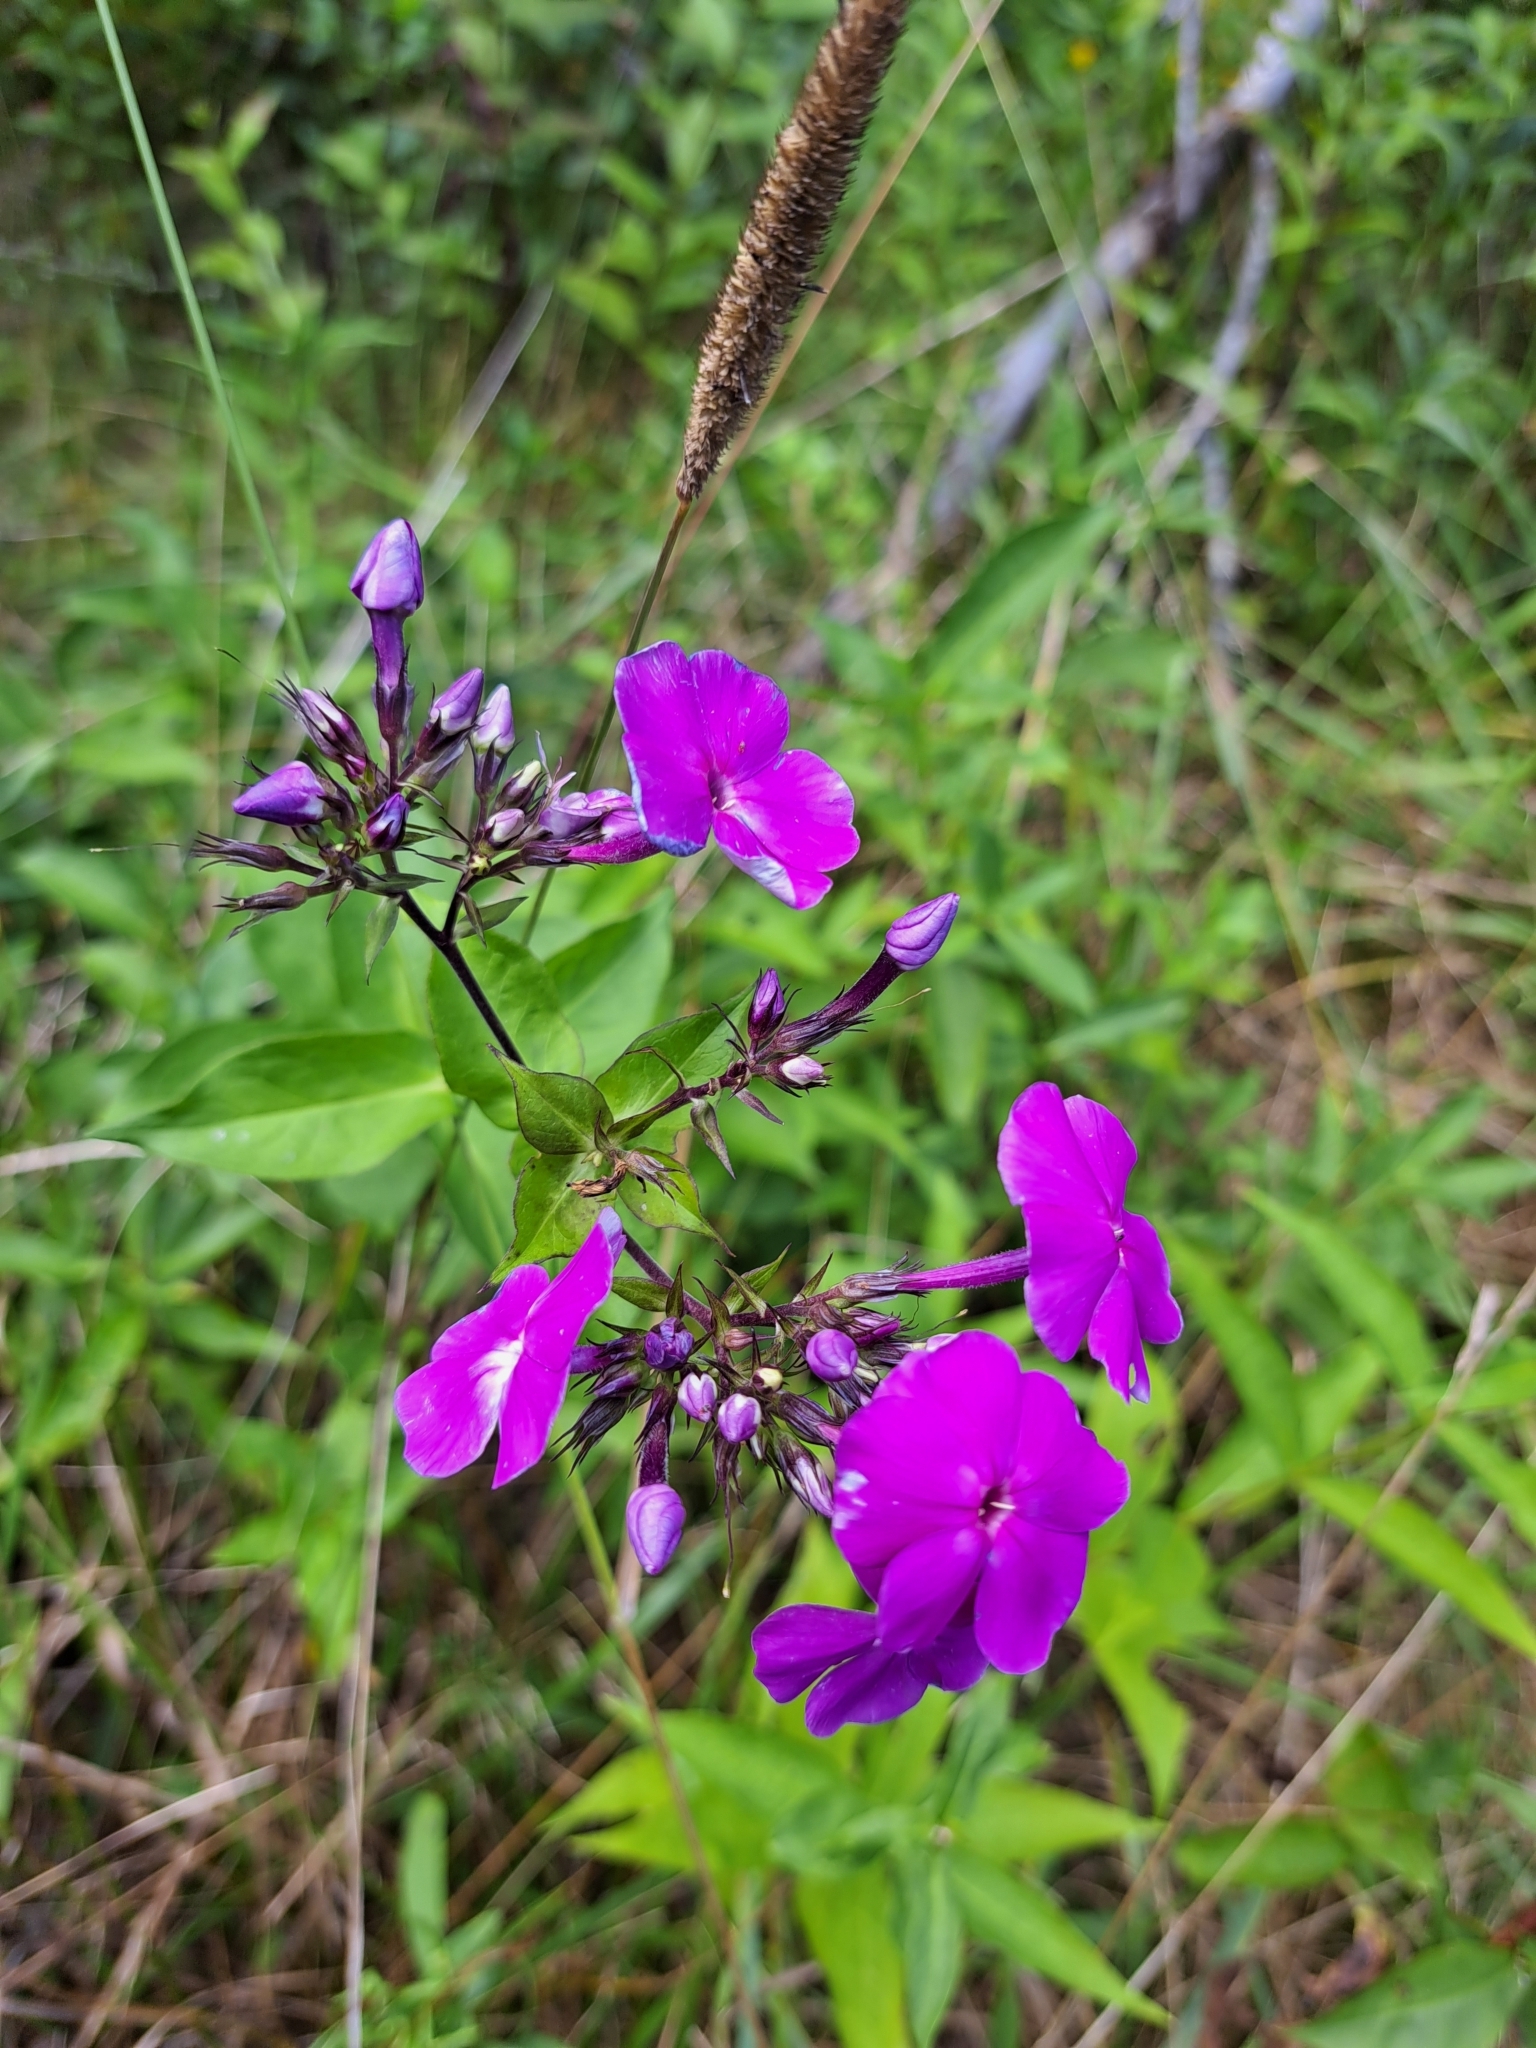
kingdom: Plantae
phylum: Tracheophyta
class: Magnoliopsida
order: Ericales
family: Polemoniaceae
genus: Phlox
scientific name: Phlox paniculata
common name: Fall phlox
